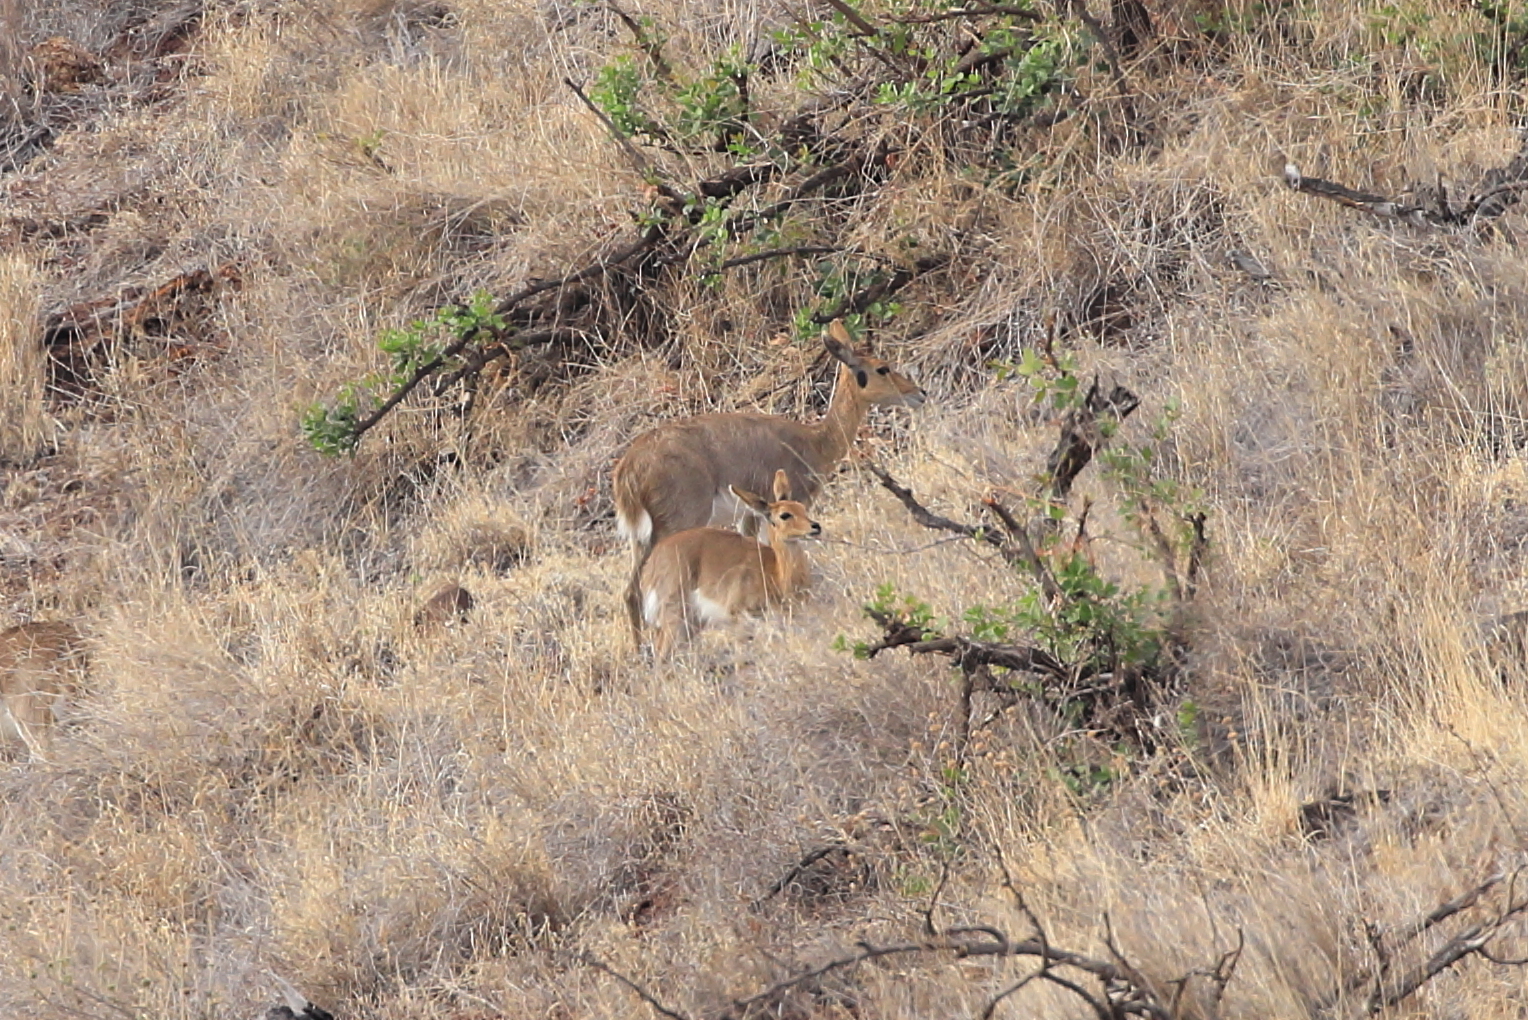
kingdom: Animalia
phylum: Chordata
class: Mammalia
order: Artiodactyla
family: Bovidae
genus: Redunca
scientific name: Redunca fulvorufula
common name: Mountain reedbuck
